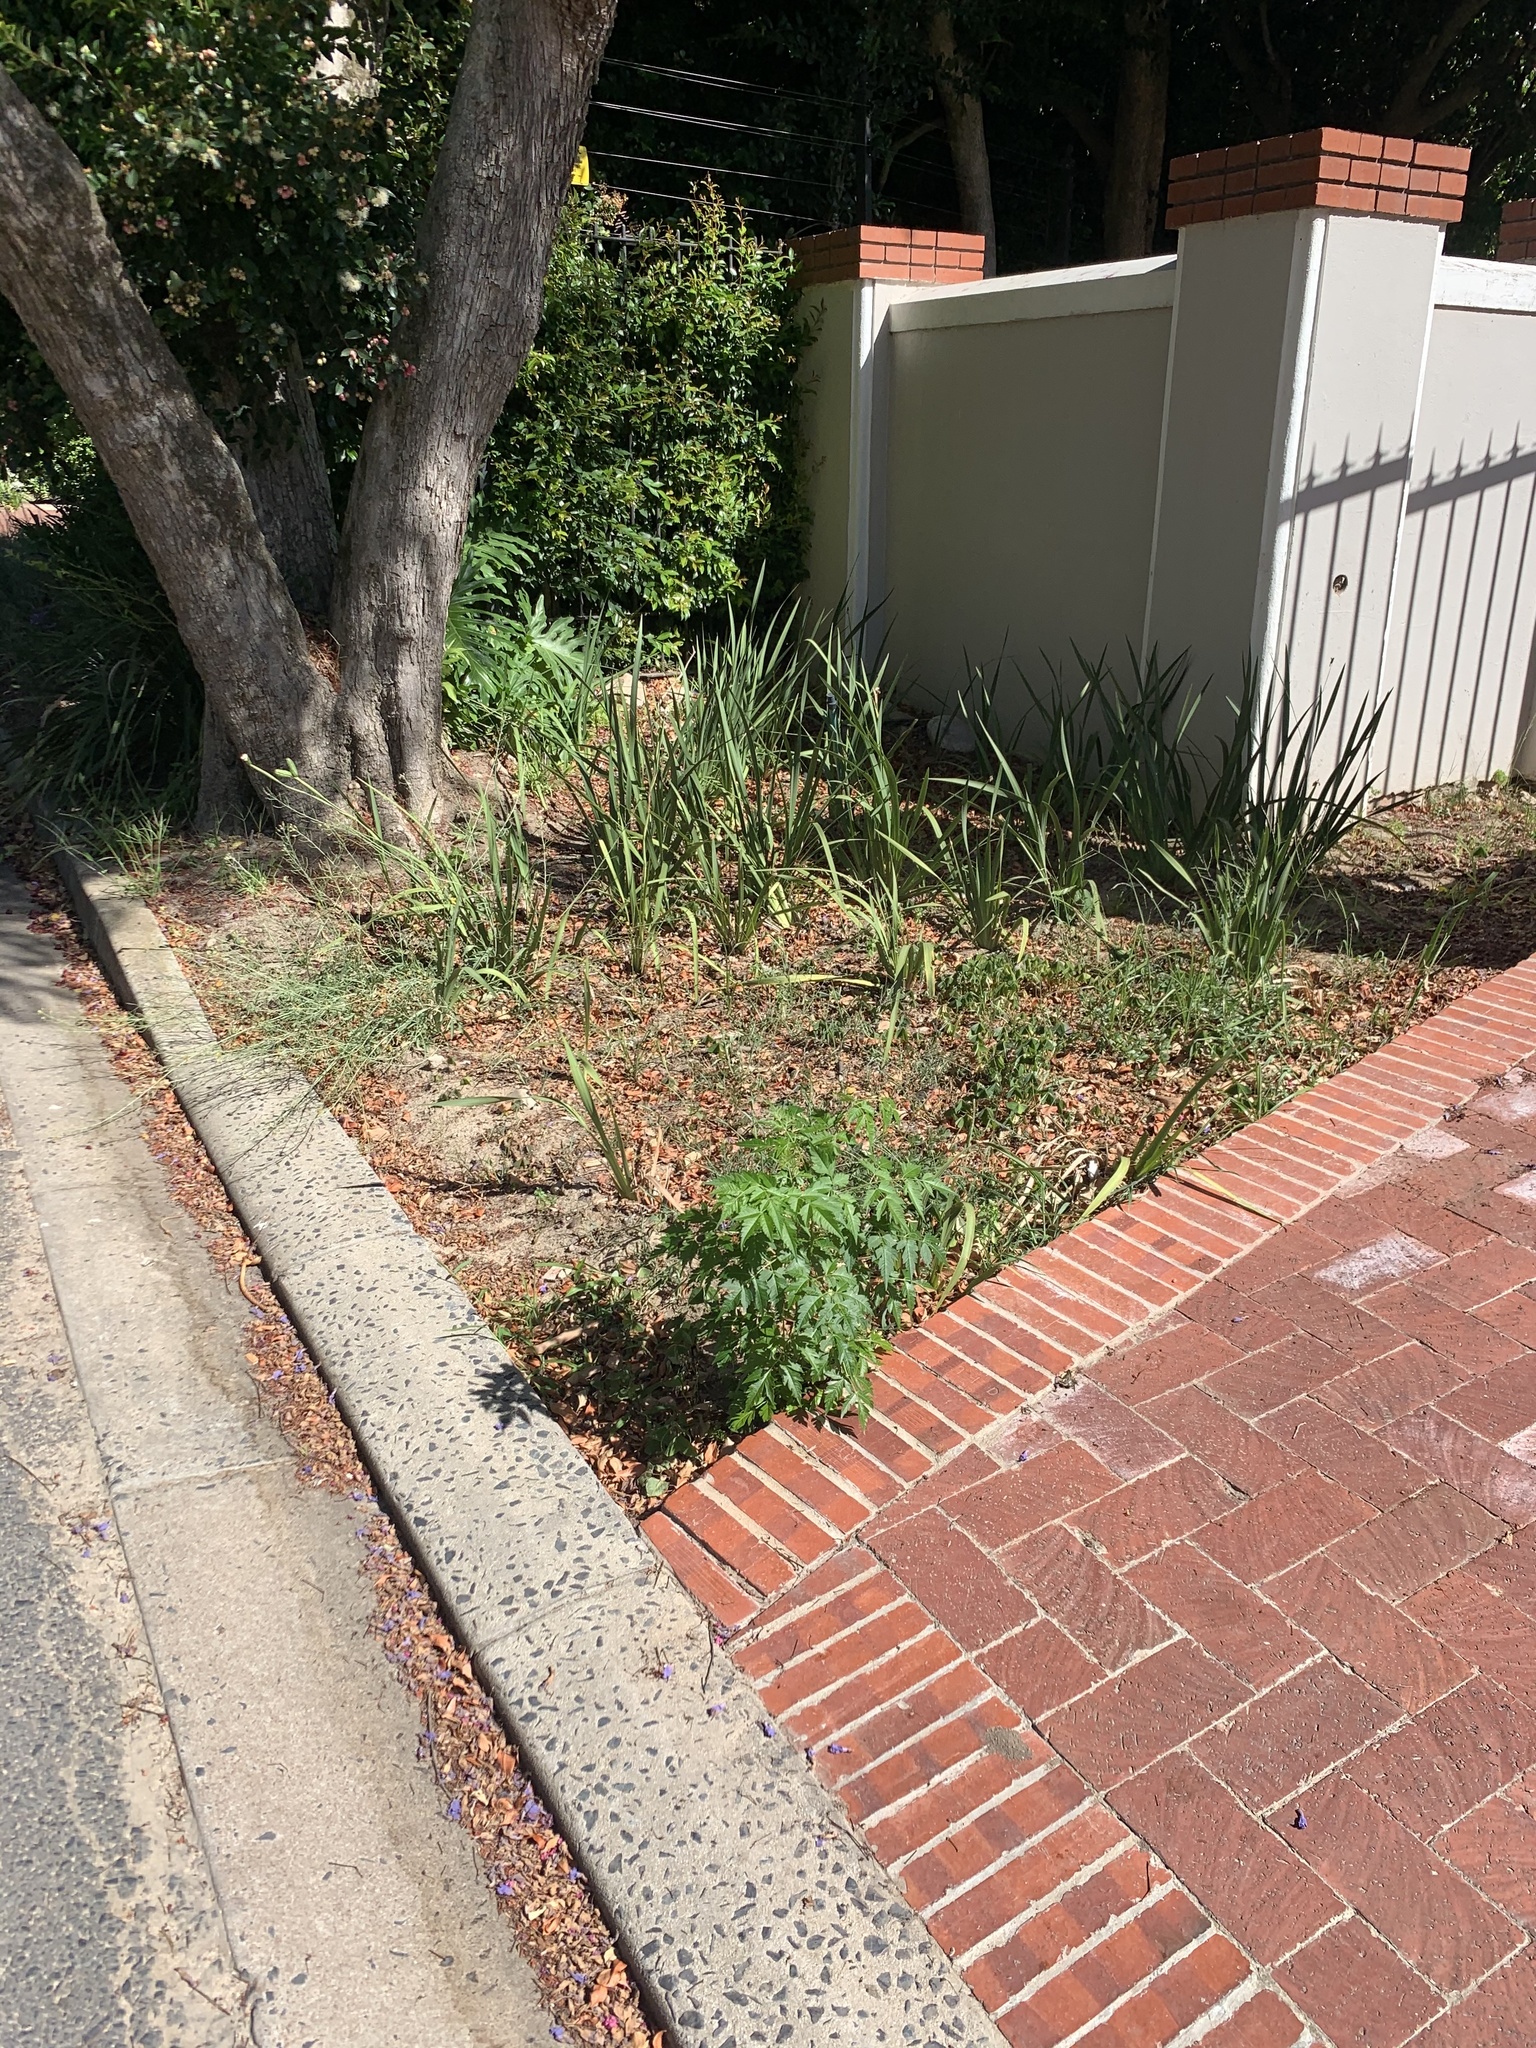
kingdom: Plantae
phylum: Tracheophyta
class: Magnoliopsida
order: Sapindales
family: Meliaceae
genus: Melia
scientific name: Melia azedarach
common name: Chinaberrytree
